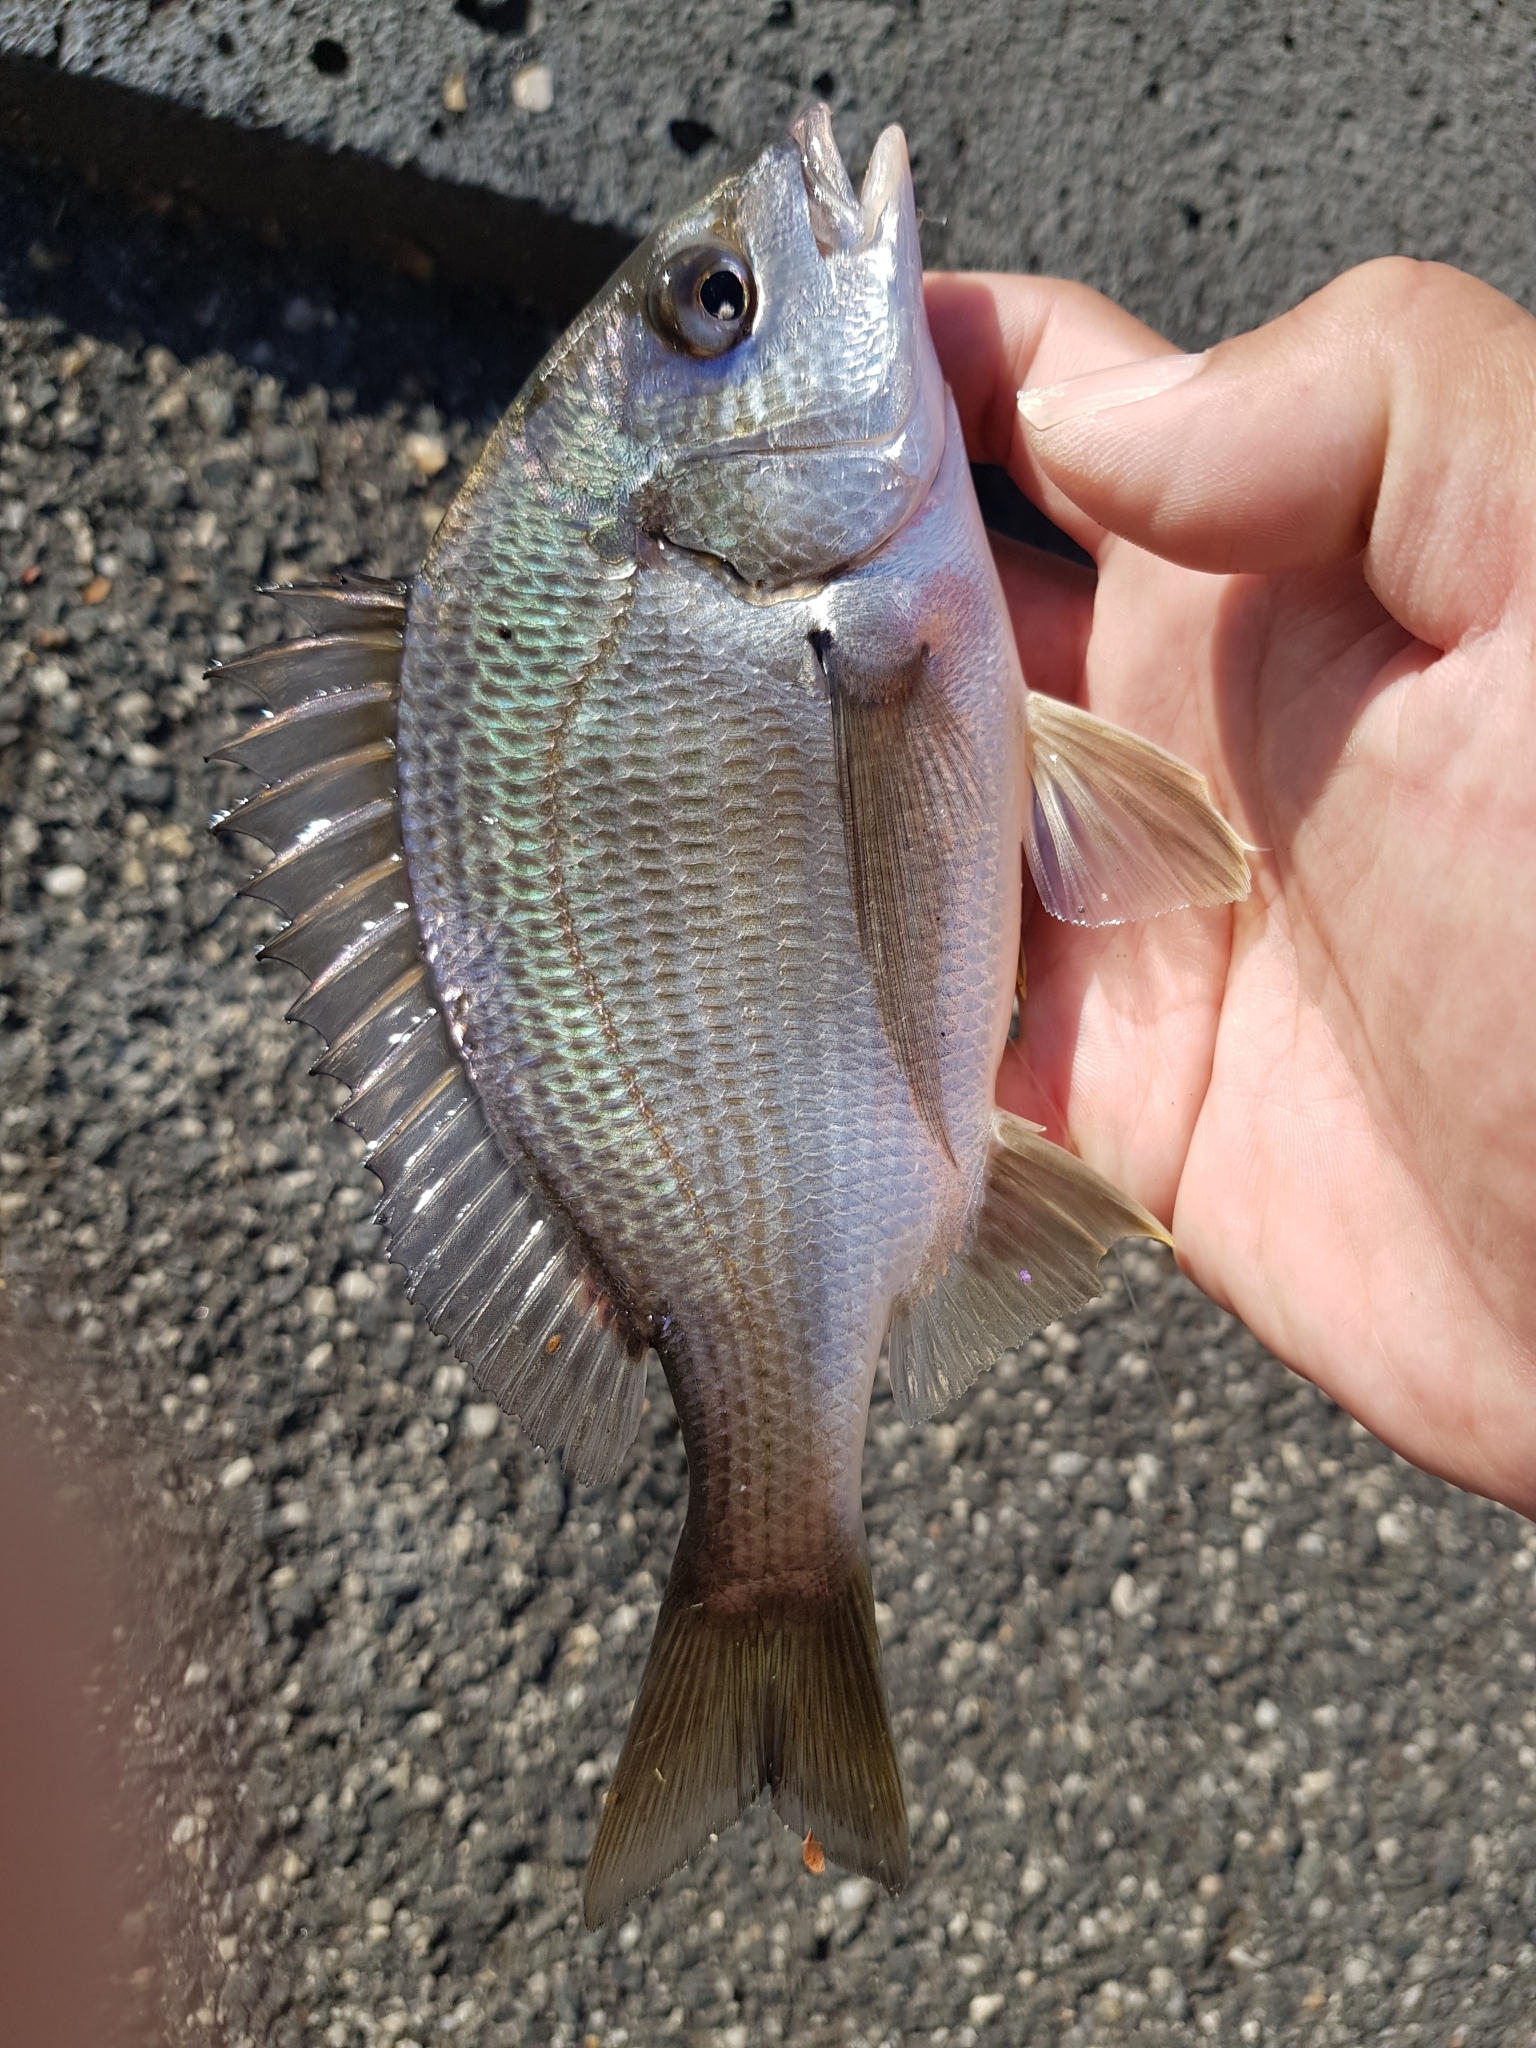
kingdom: Animalia
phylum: Chordata
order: Perciformes
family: Sparidae
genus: Acanthopagrus
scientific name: Acanthopagrus butcheri
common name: Black bream
